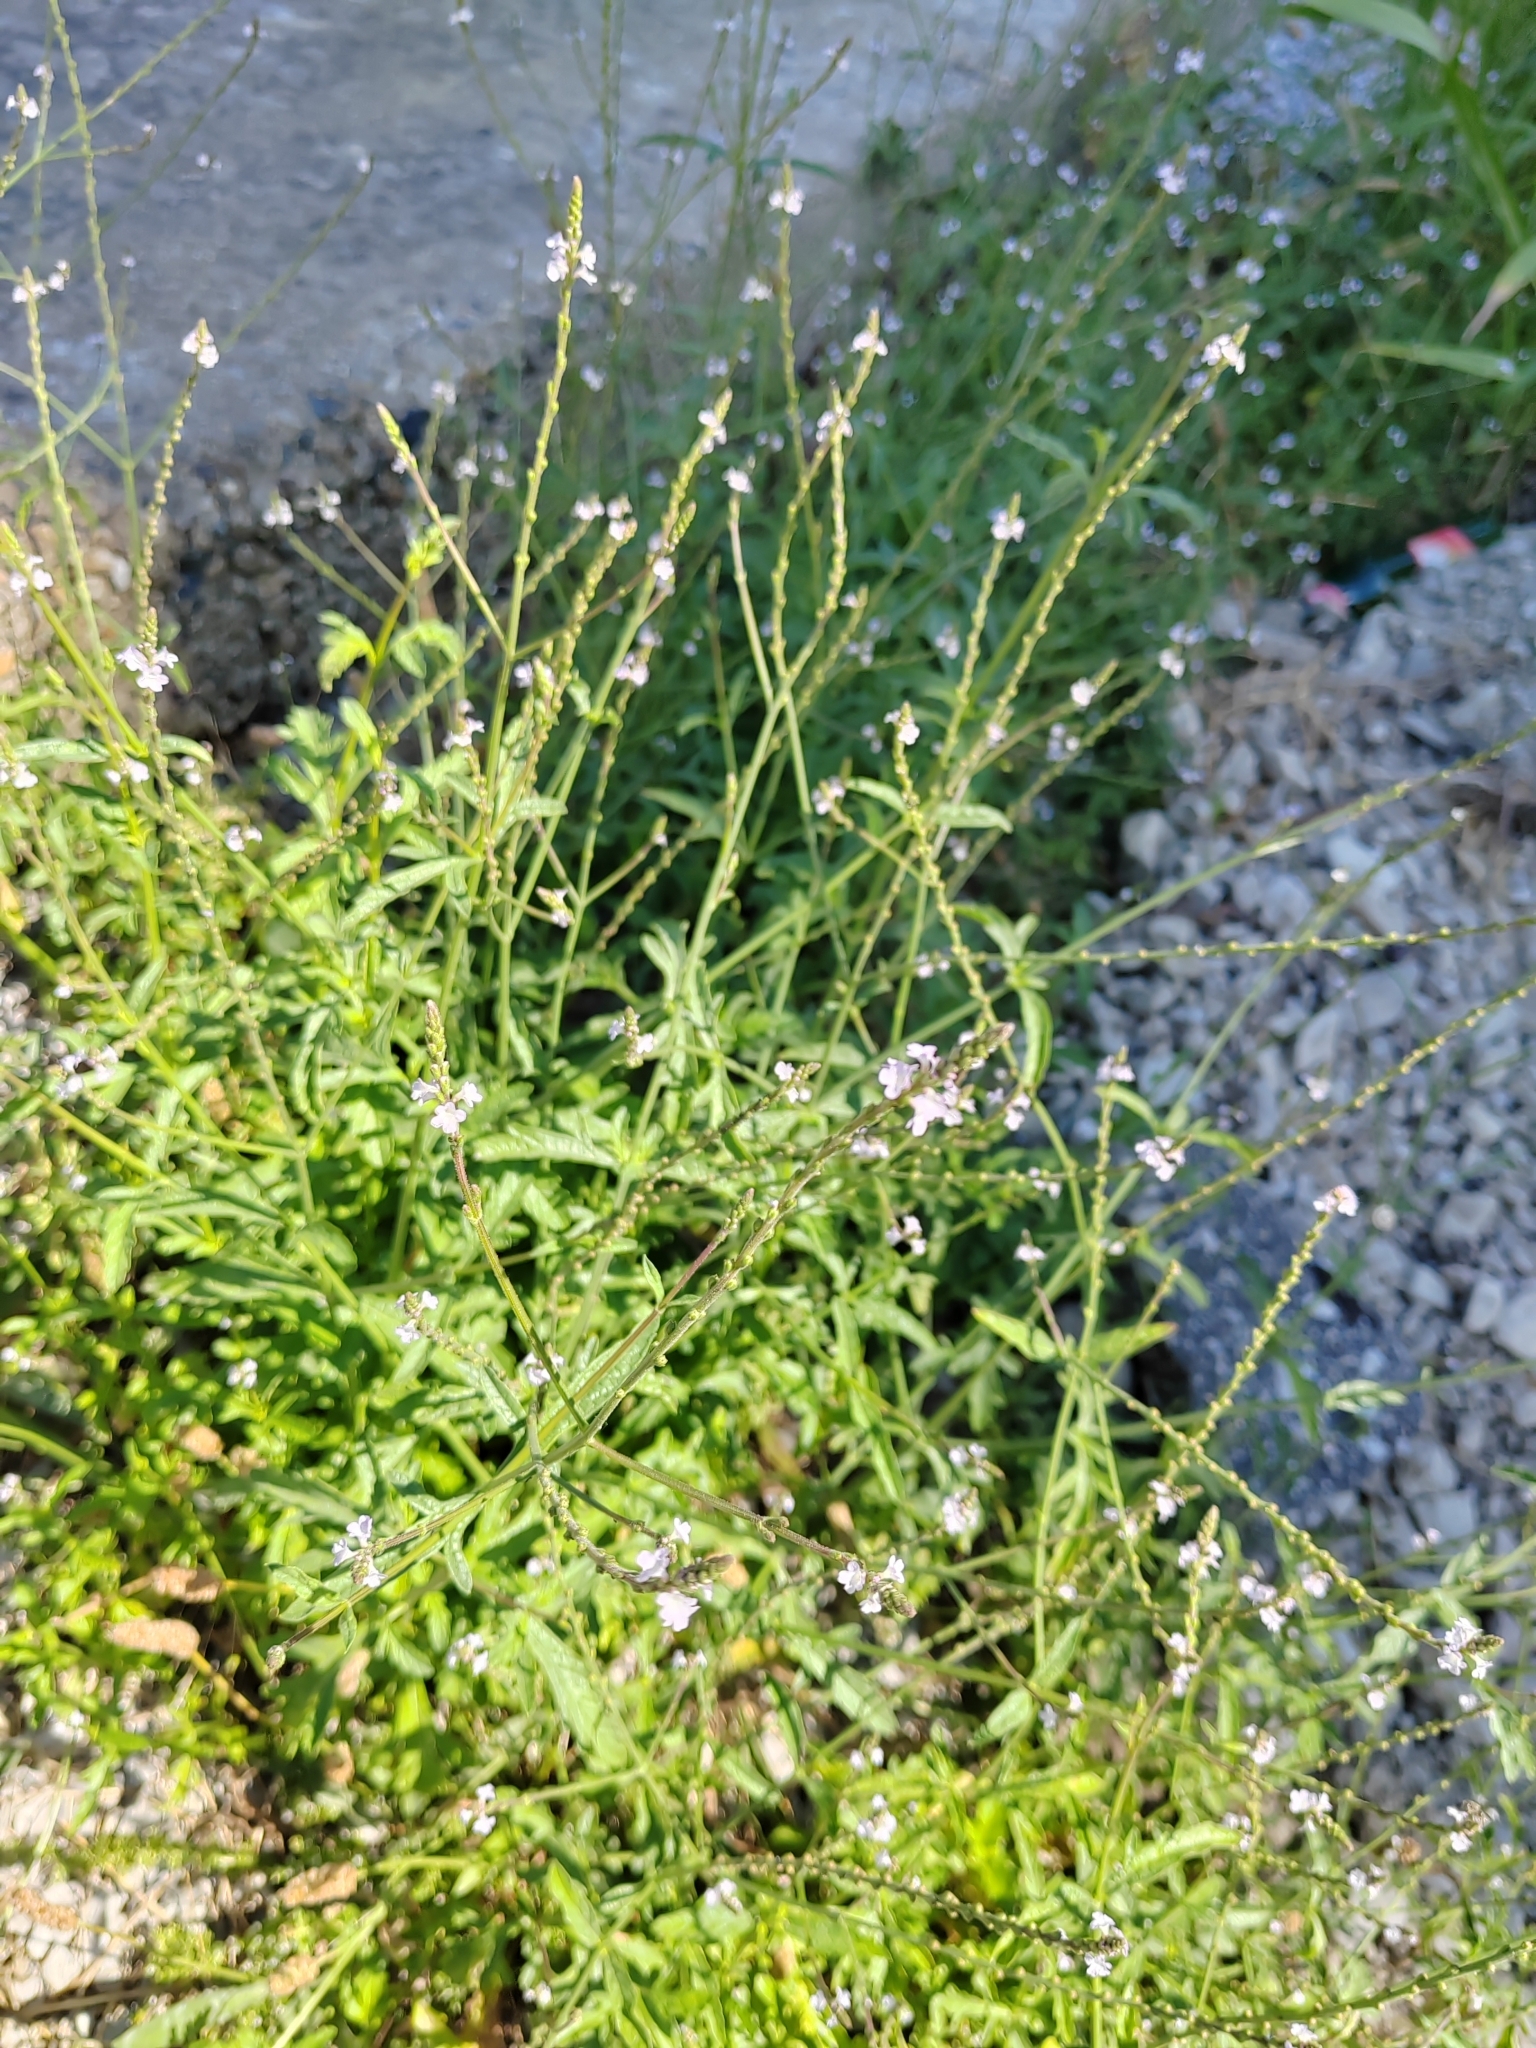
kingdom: Plantae
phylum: Tracheophyta
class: Magnoliopsida
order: Lamiales
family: Verbenaceae
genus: Verbena
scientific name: Verbena officinalis
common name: Vervain
